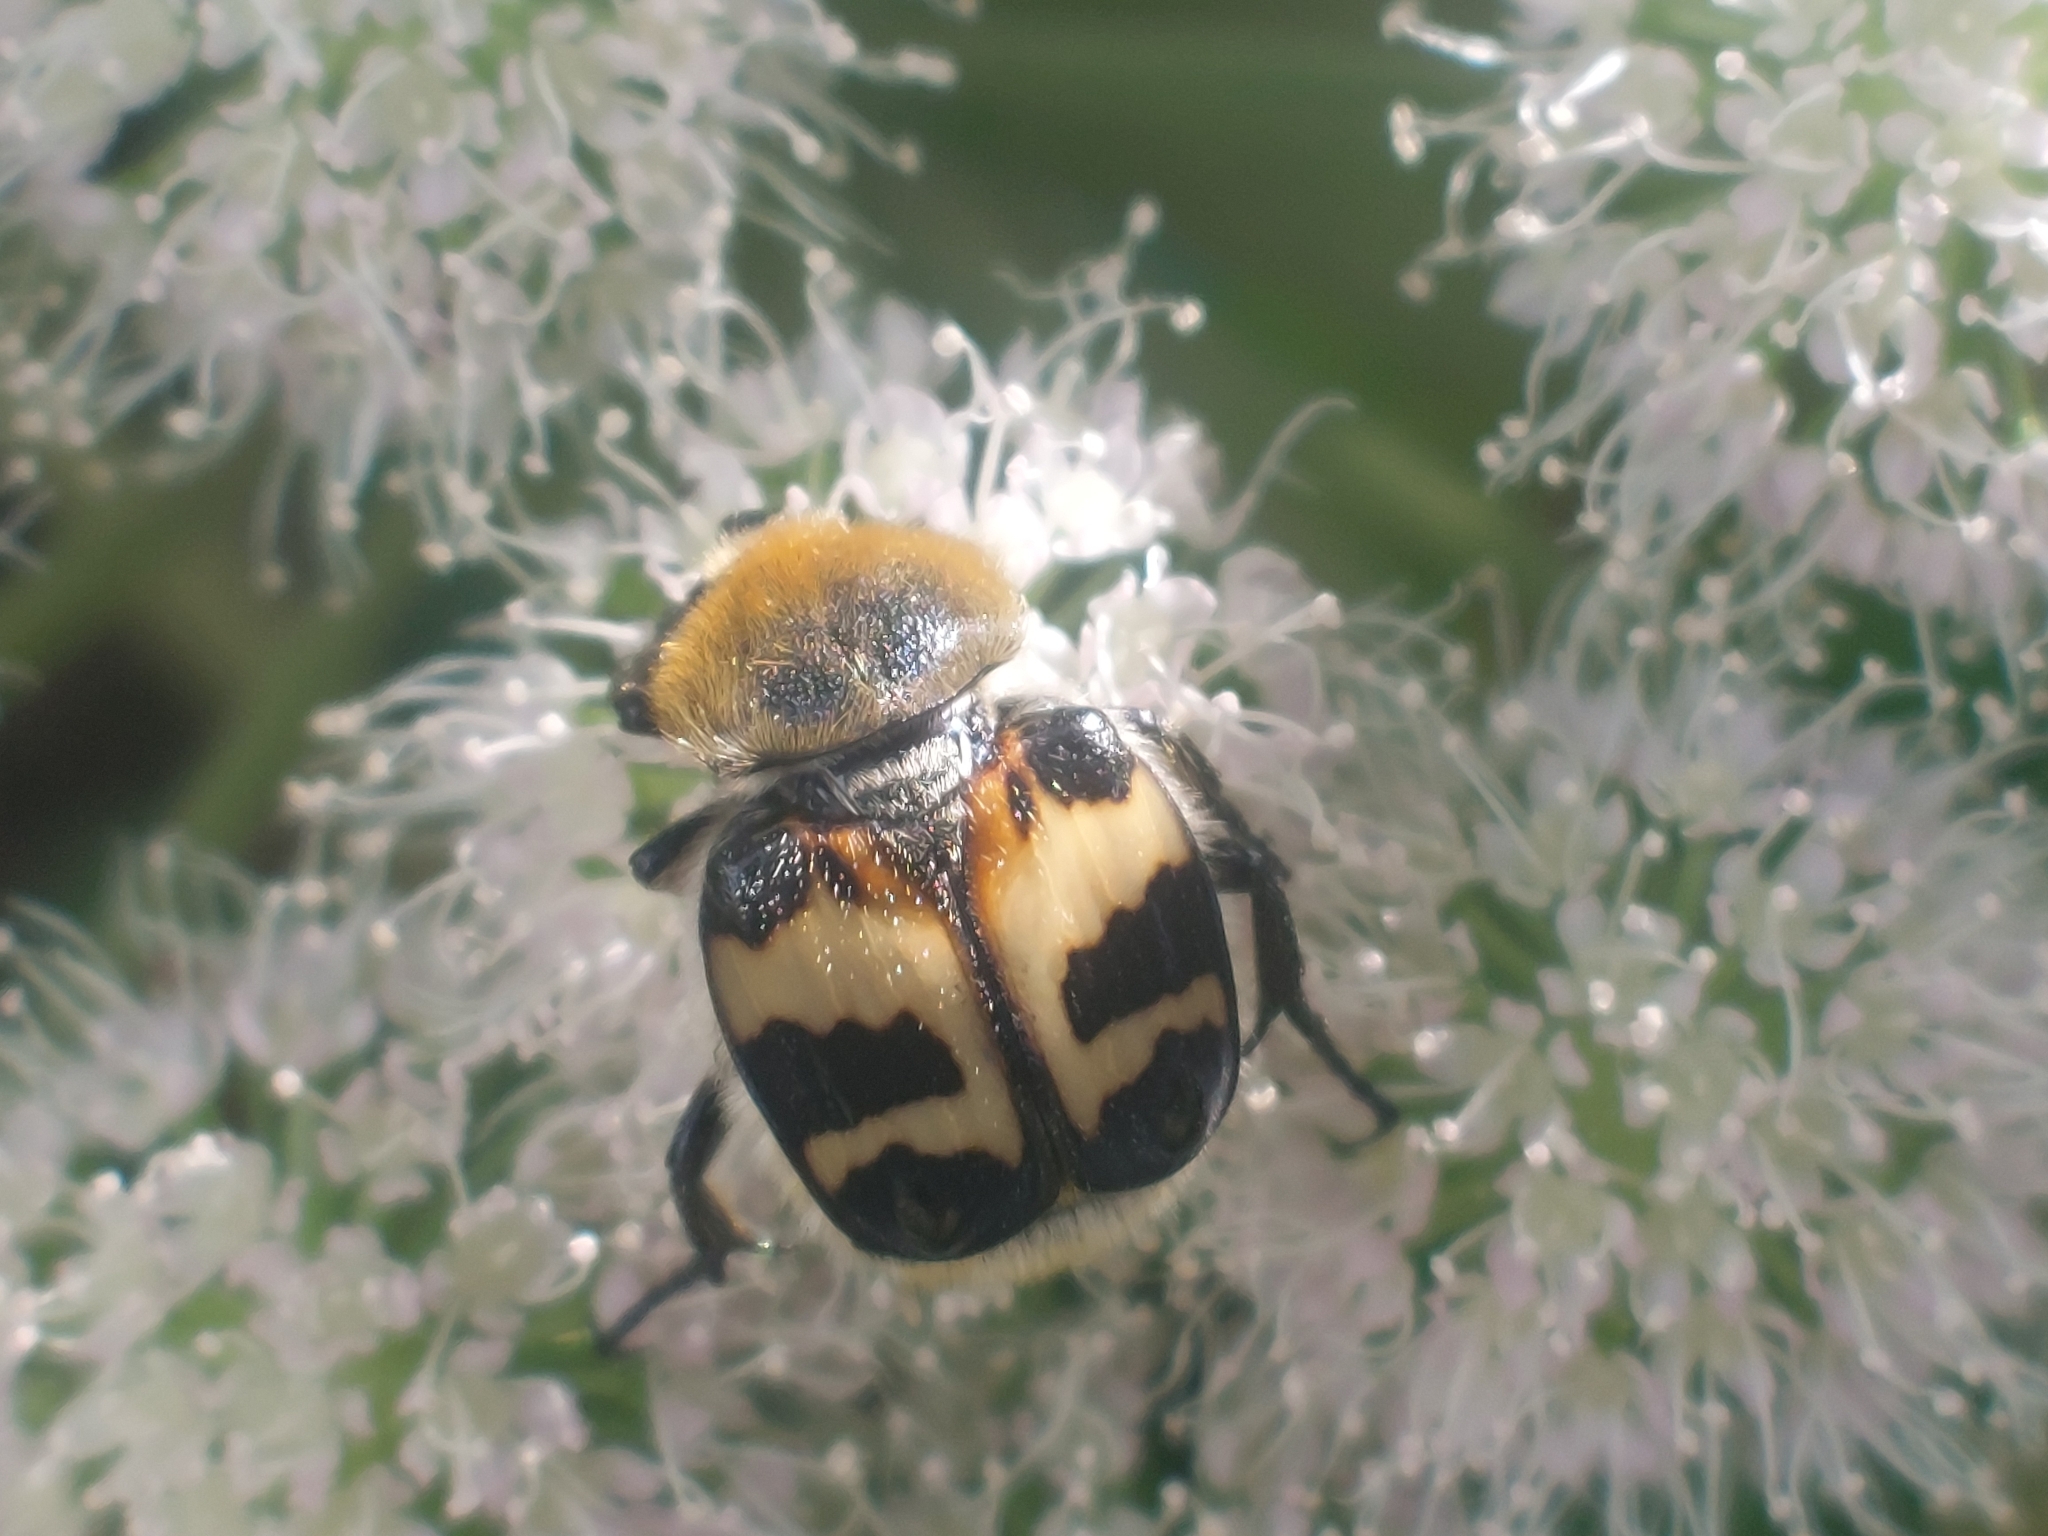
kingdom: Animalia
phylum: Arthropoda
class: Insecta
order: Coleoptera
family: Scarabaeidae
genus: Trichius
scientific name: Trichius fasciatus
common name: Bee beetle
